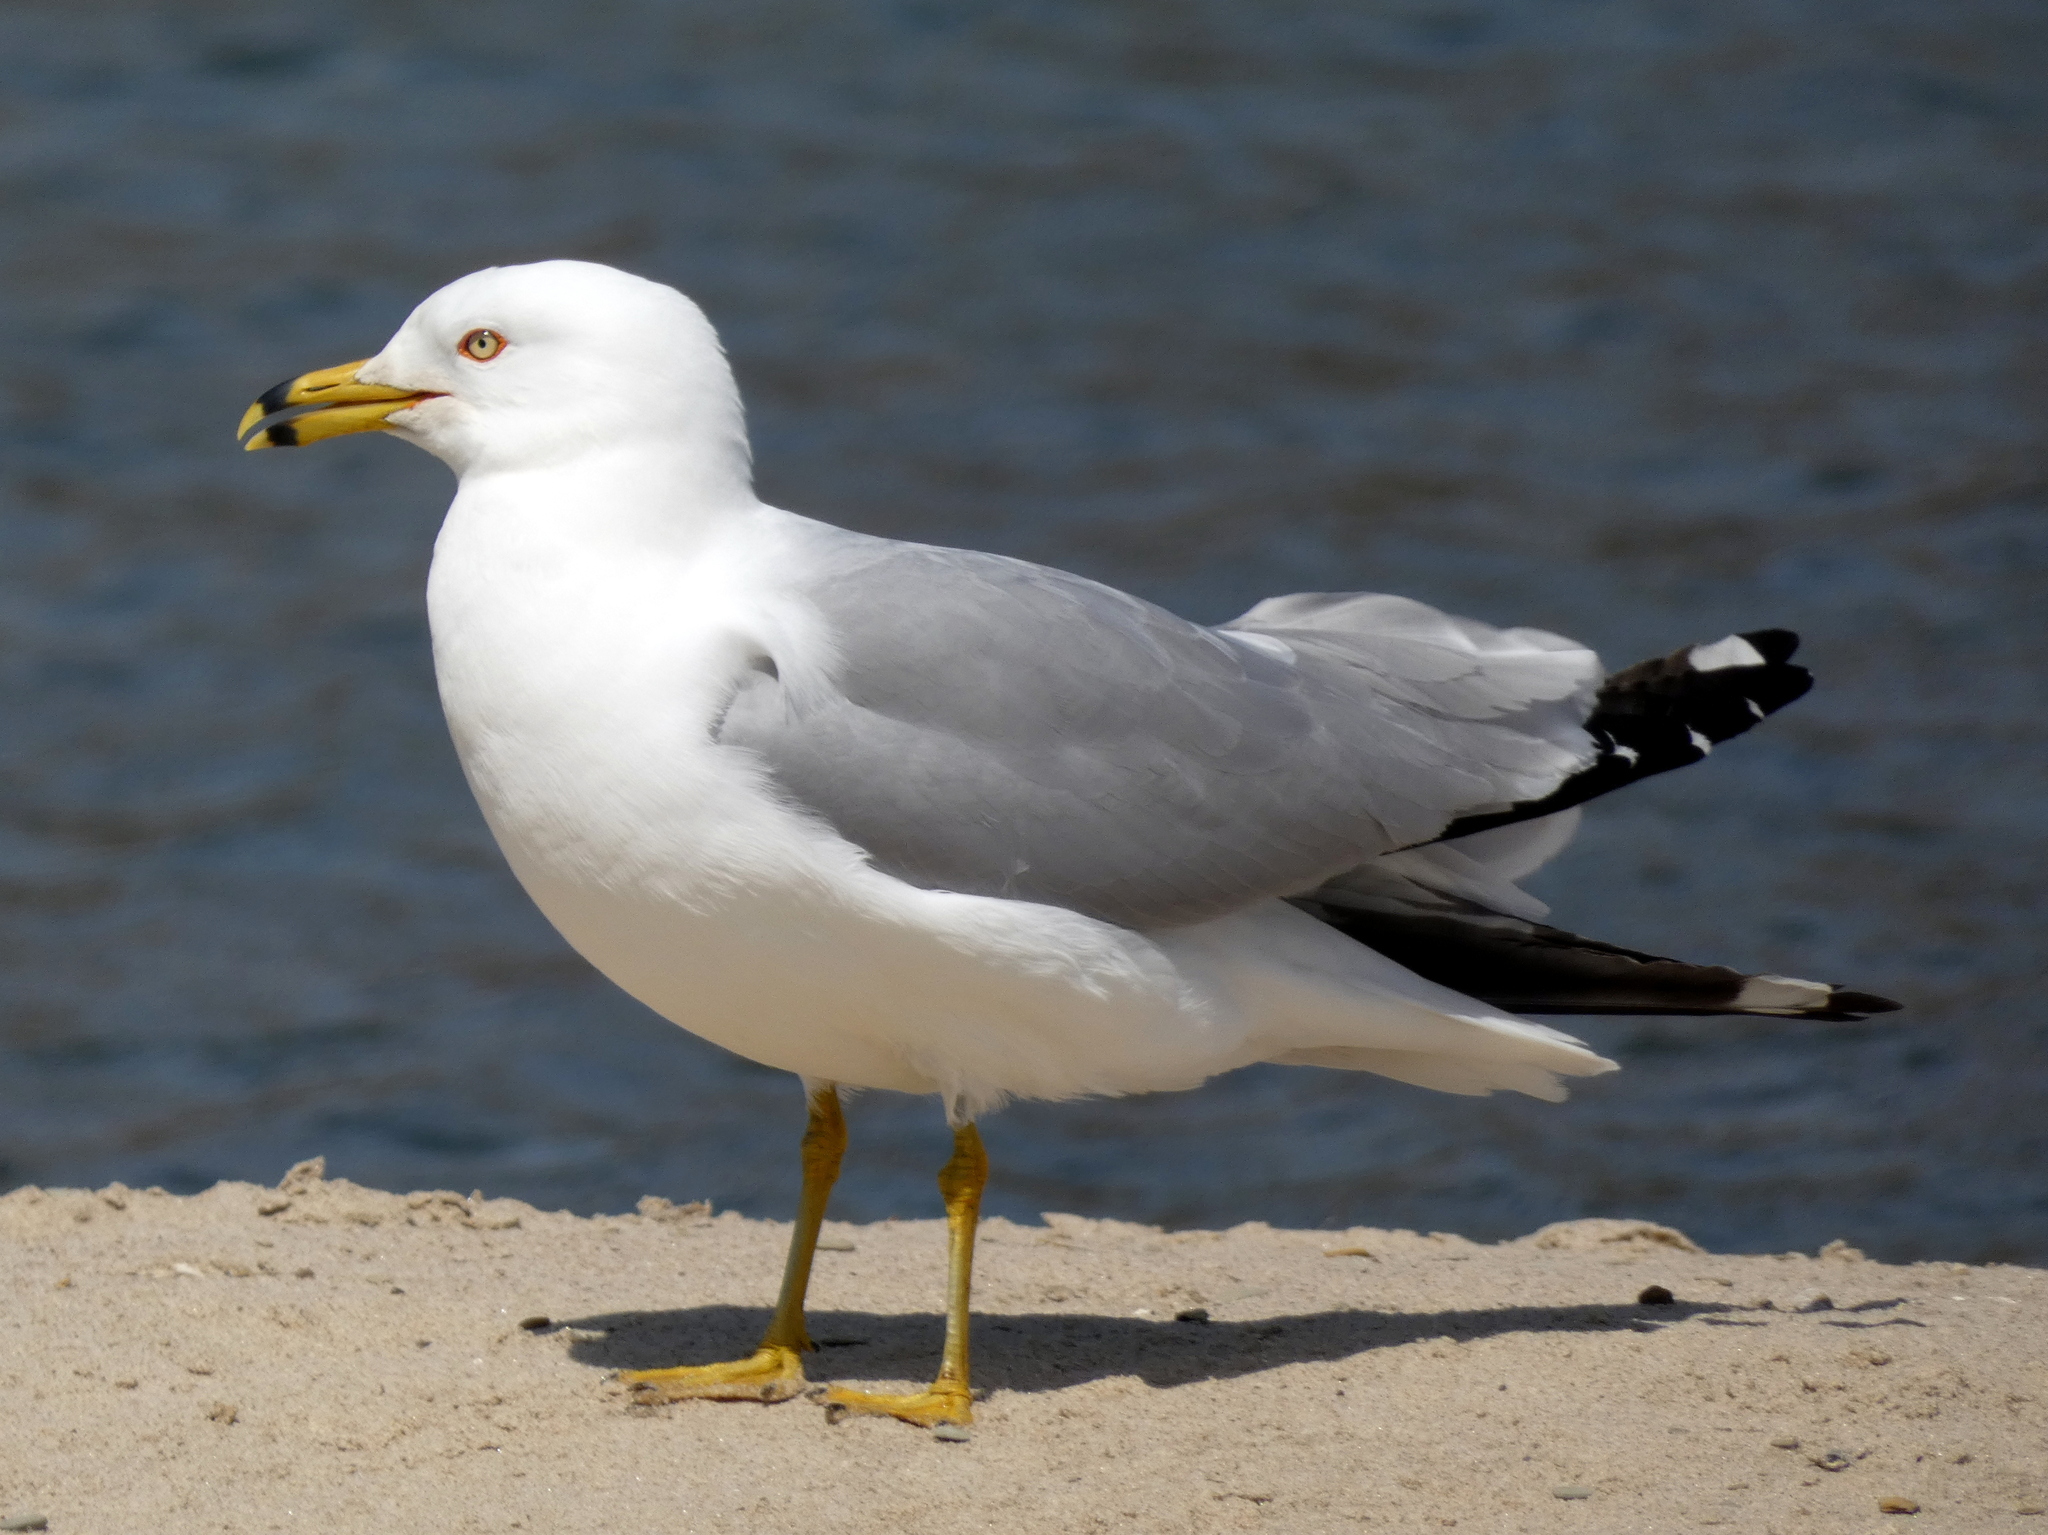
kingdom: Animalia
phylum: Chordata
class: Aves
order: Charadriiformes
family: Laridae
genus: Larus
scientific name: Larus delawarensis
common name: Ring-billed gull
